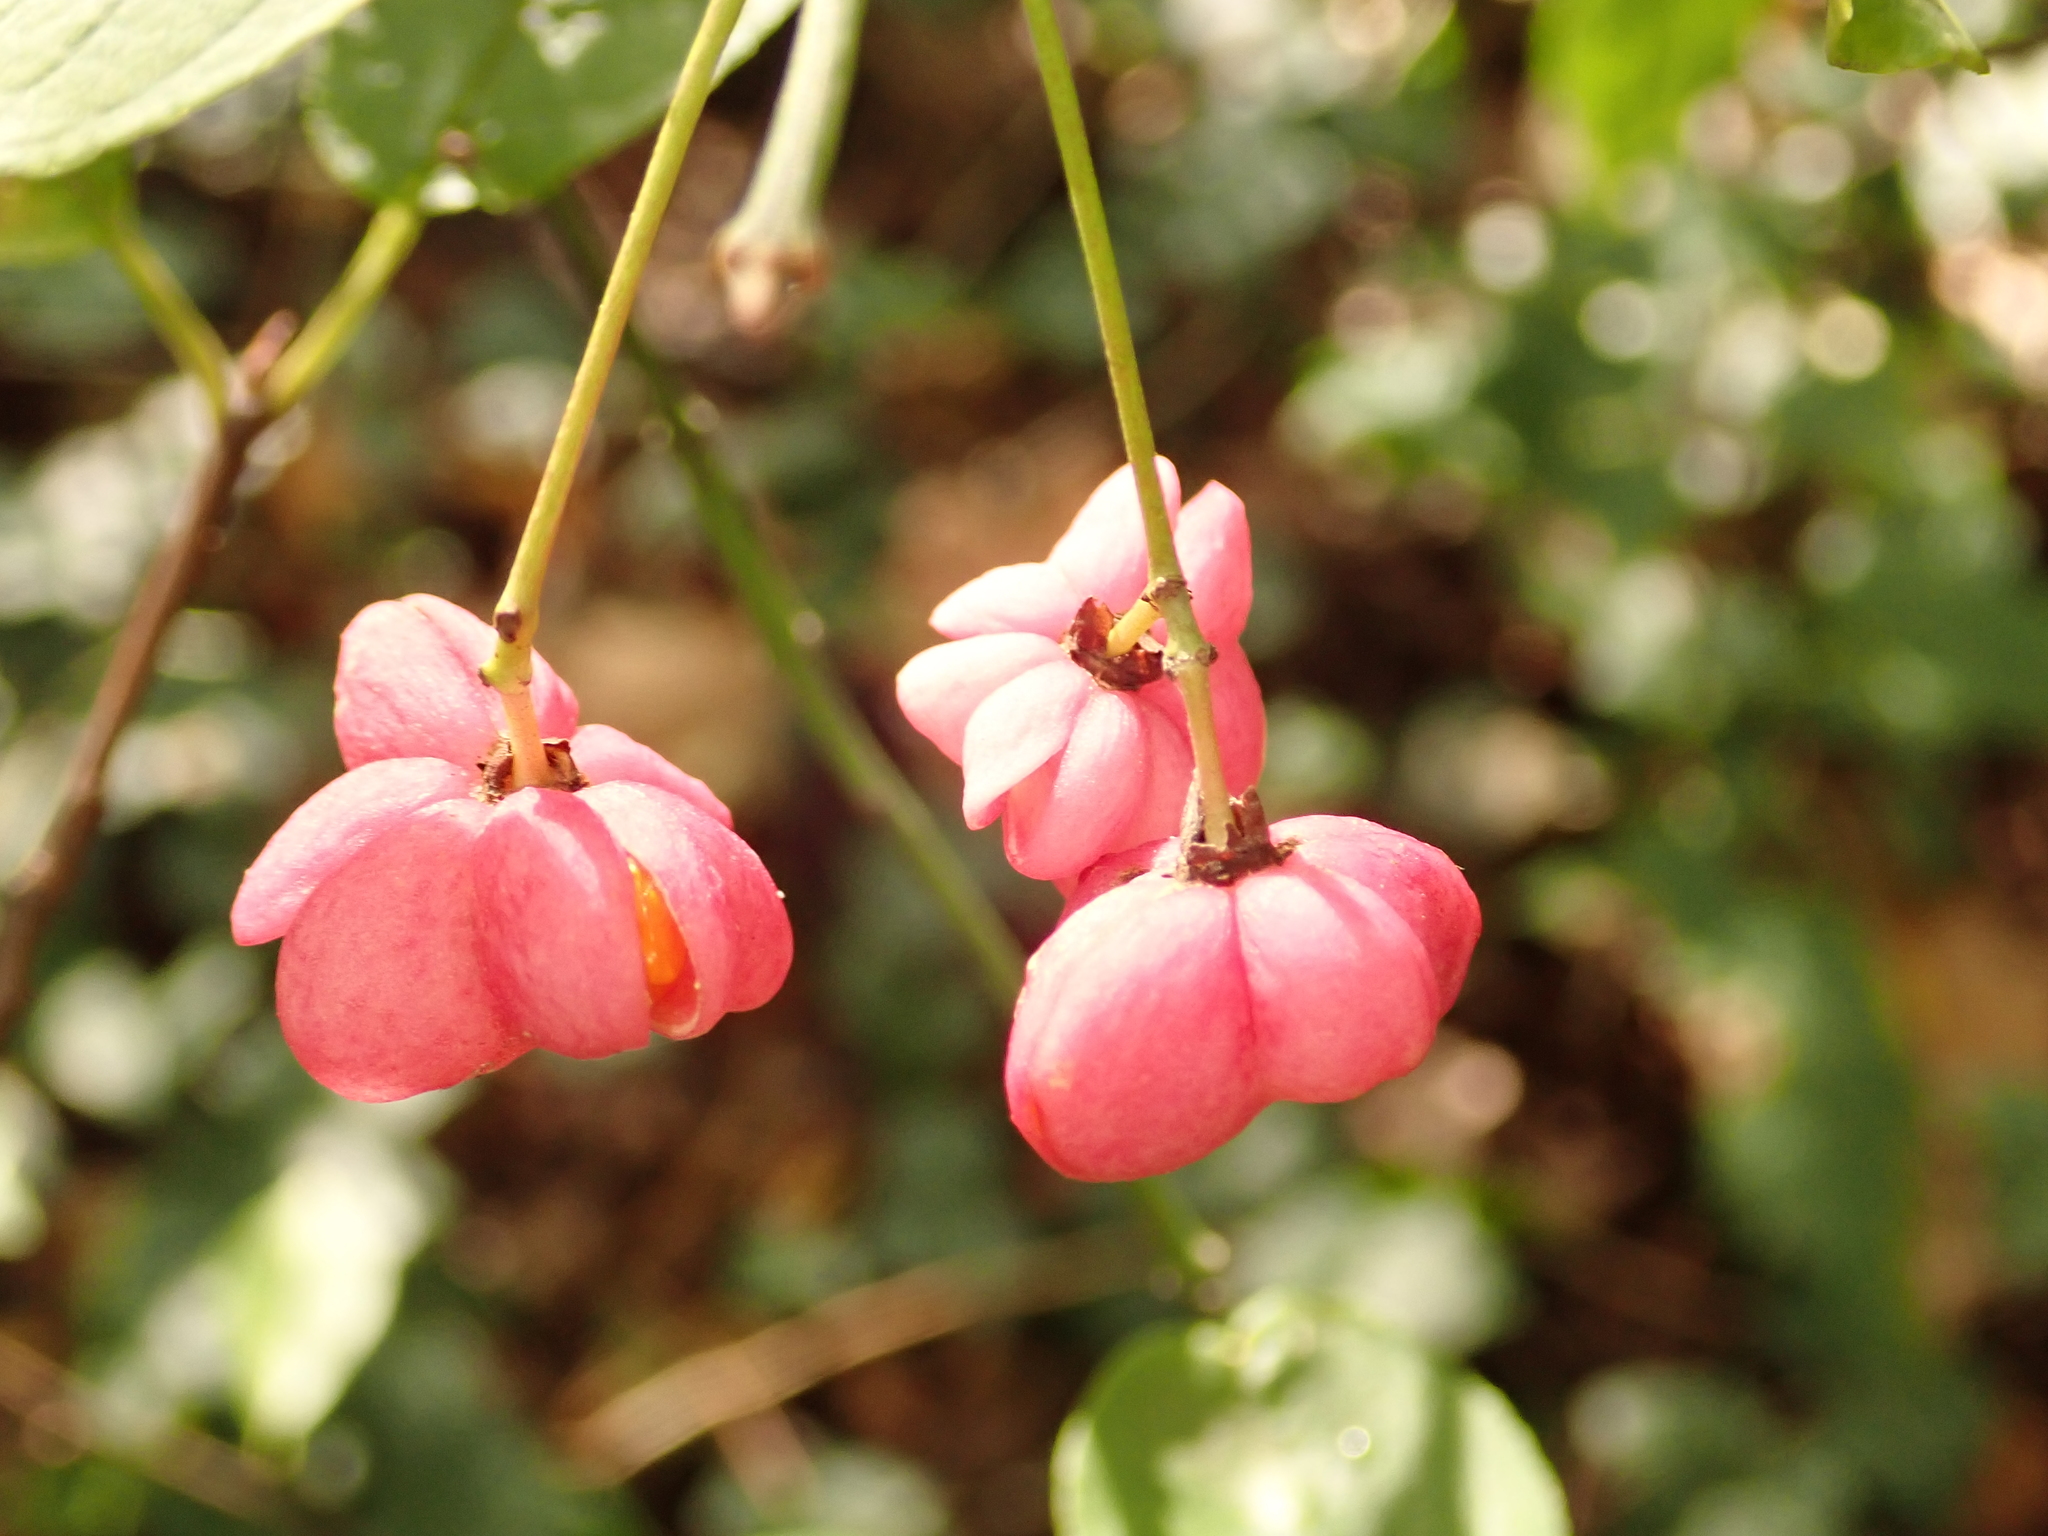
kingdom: Plantae
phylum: Tracheophyta
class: Magnoliopsida
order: Celastrales
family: Celastraceae
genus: Euonymus
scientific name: Euonymus europaeus
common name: Spindle
